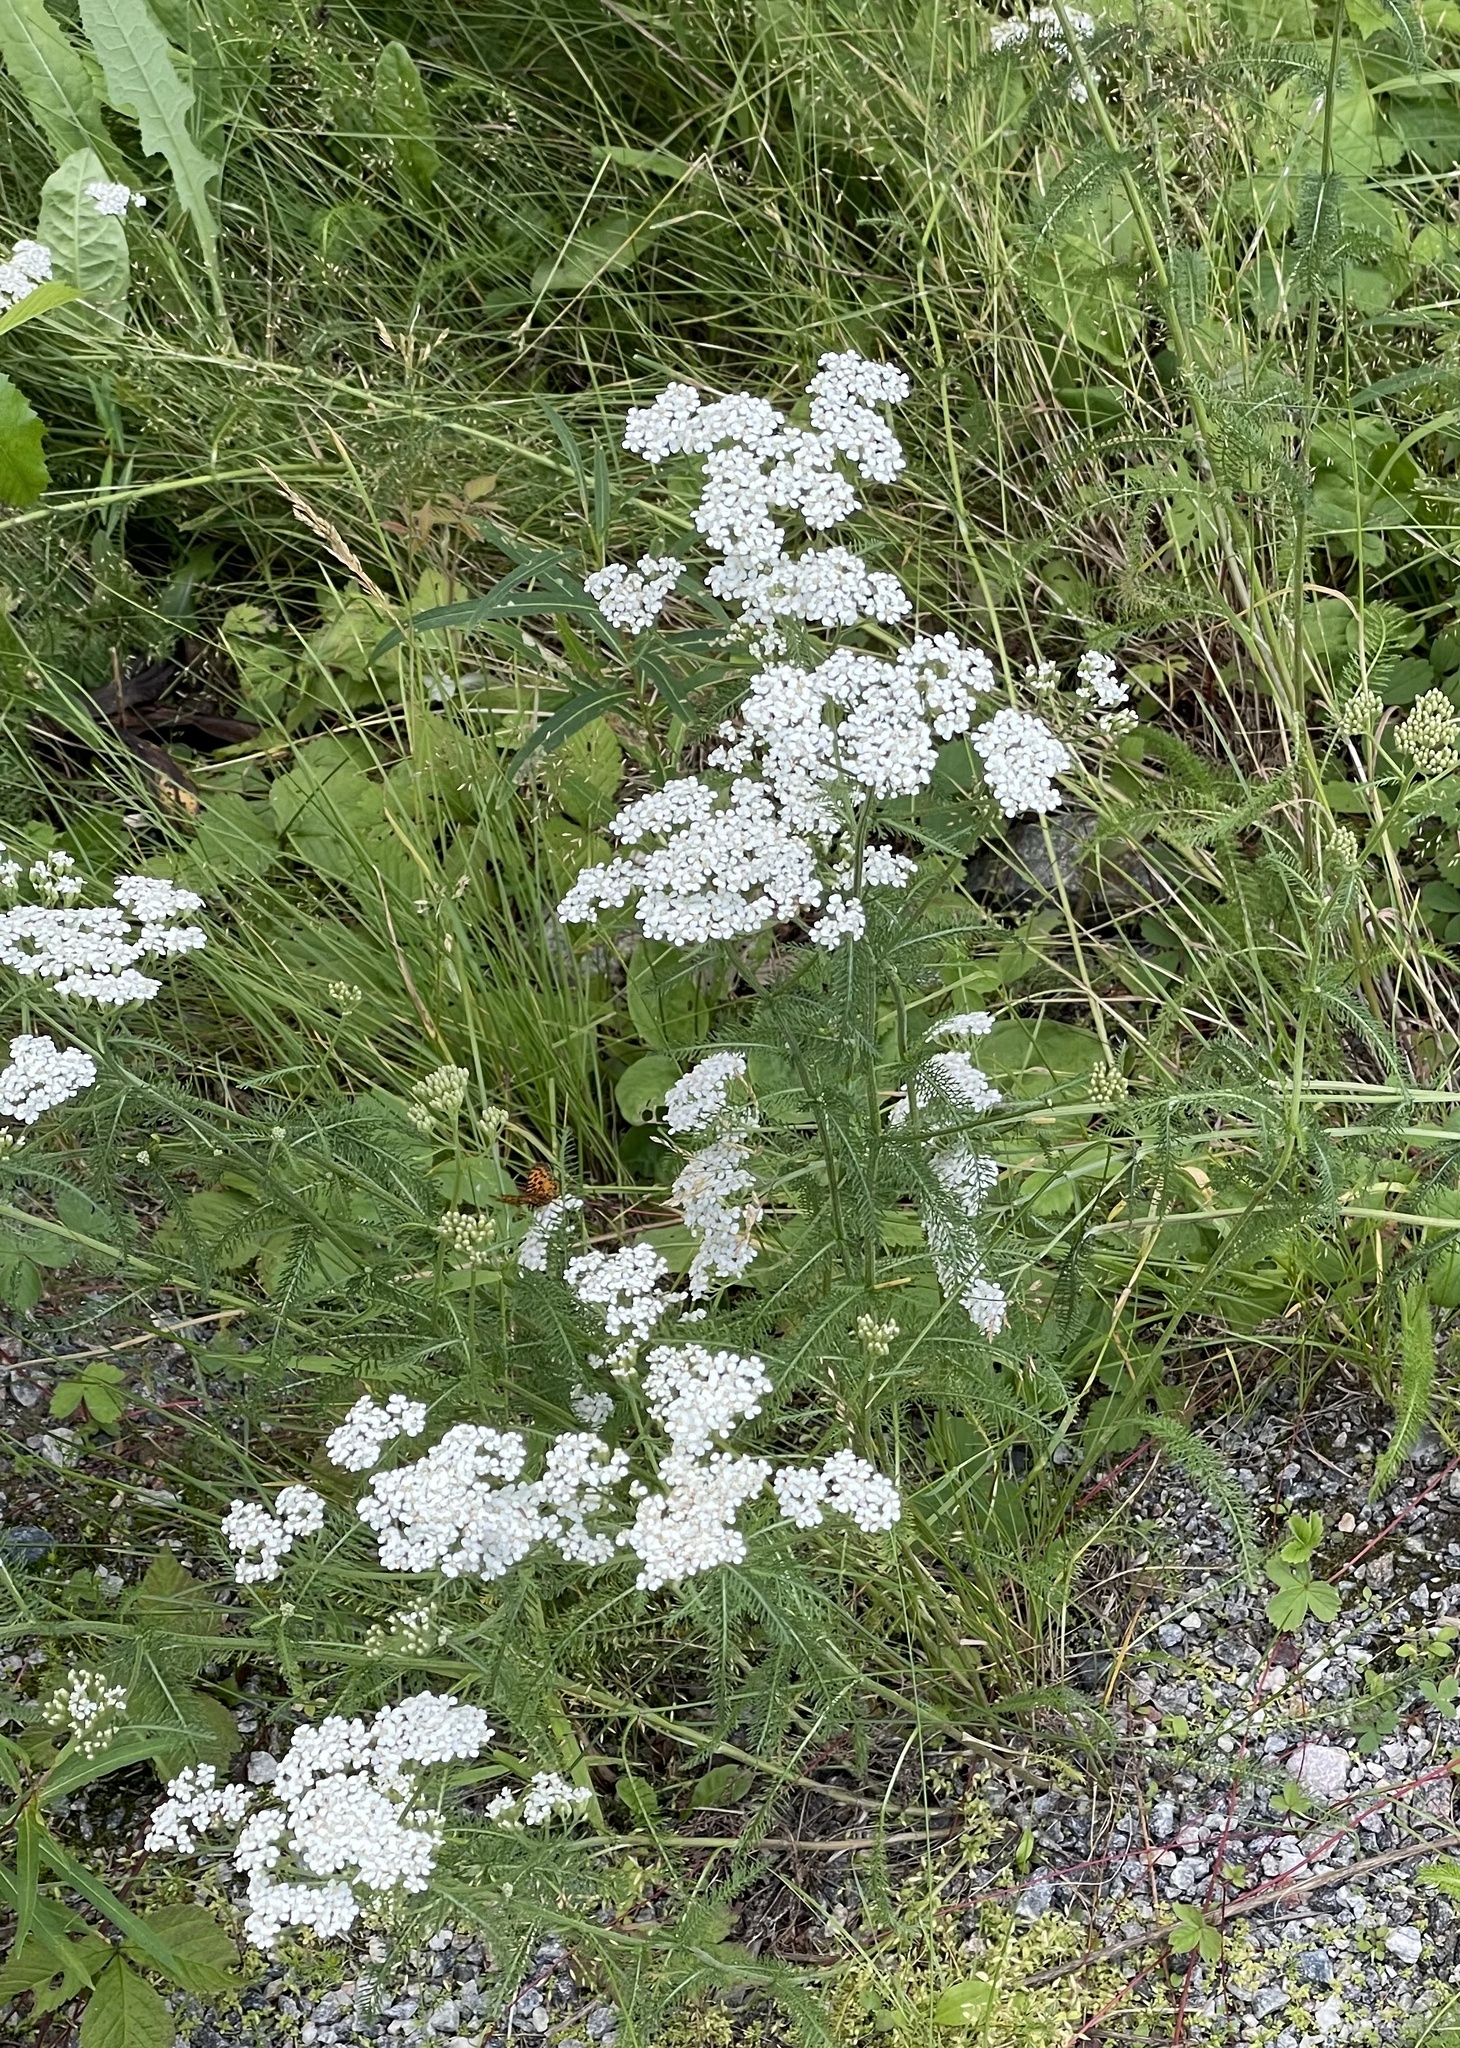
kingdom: Plantae
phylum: Tracheophyta
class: Magnoliopsida
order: Asterales
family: Asteraceae
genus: Achillea
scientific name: Achillea millefolium
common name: Yarrow
